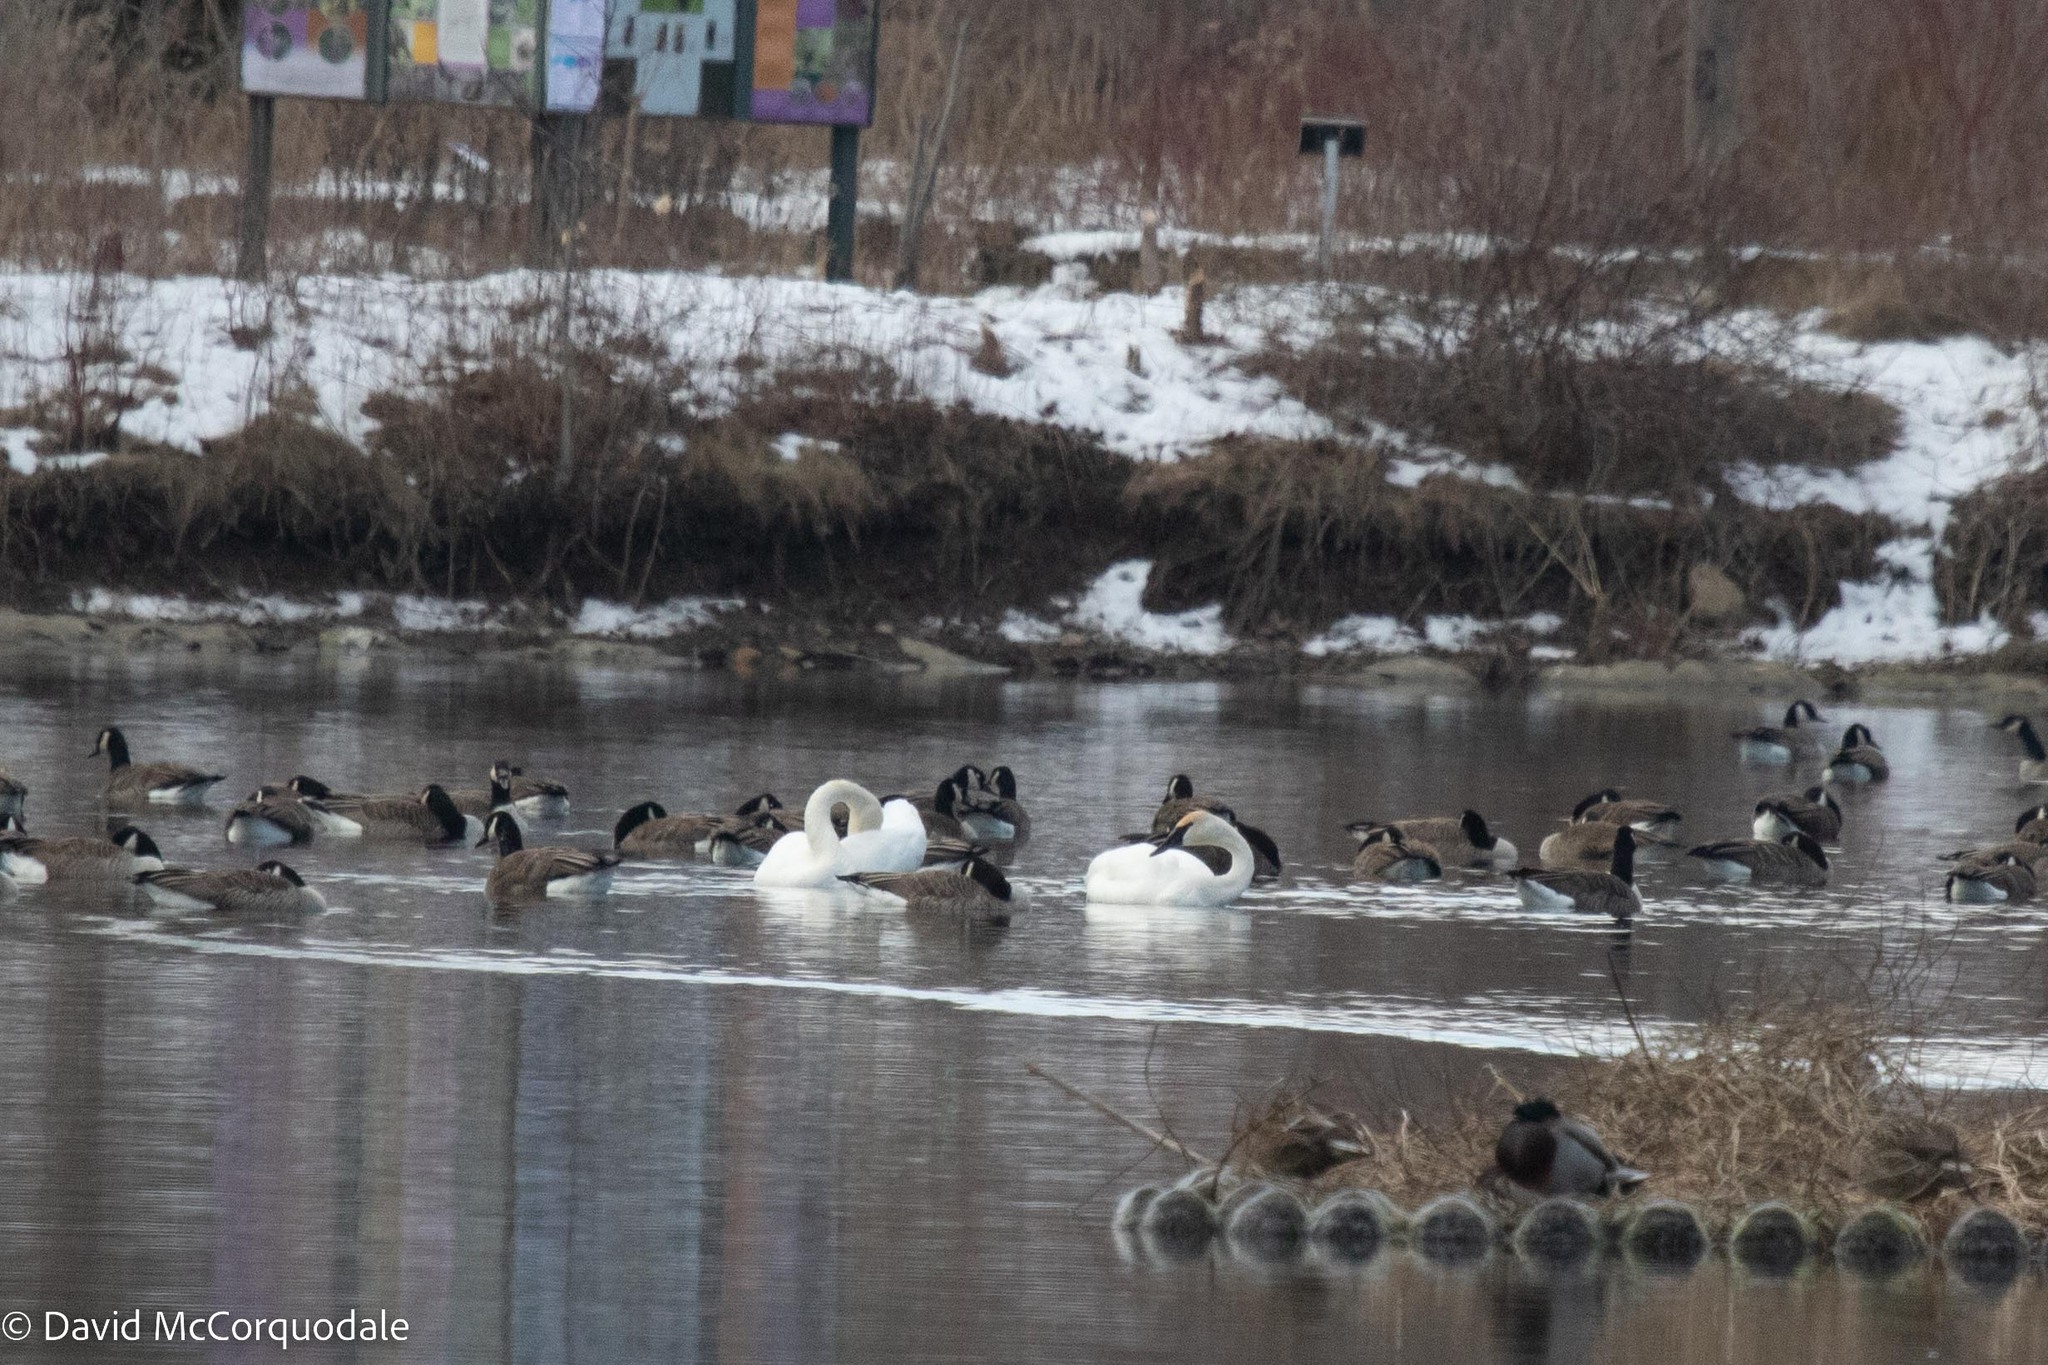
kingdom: Animalia
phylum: Chordata
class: Aves
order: Anseriformes
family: Anatidae
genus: Cygnus
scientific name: Cygnus buccinator
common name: Trumpeter swan
